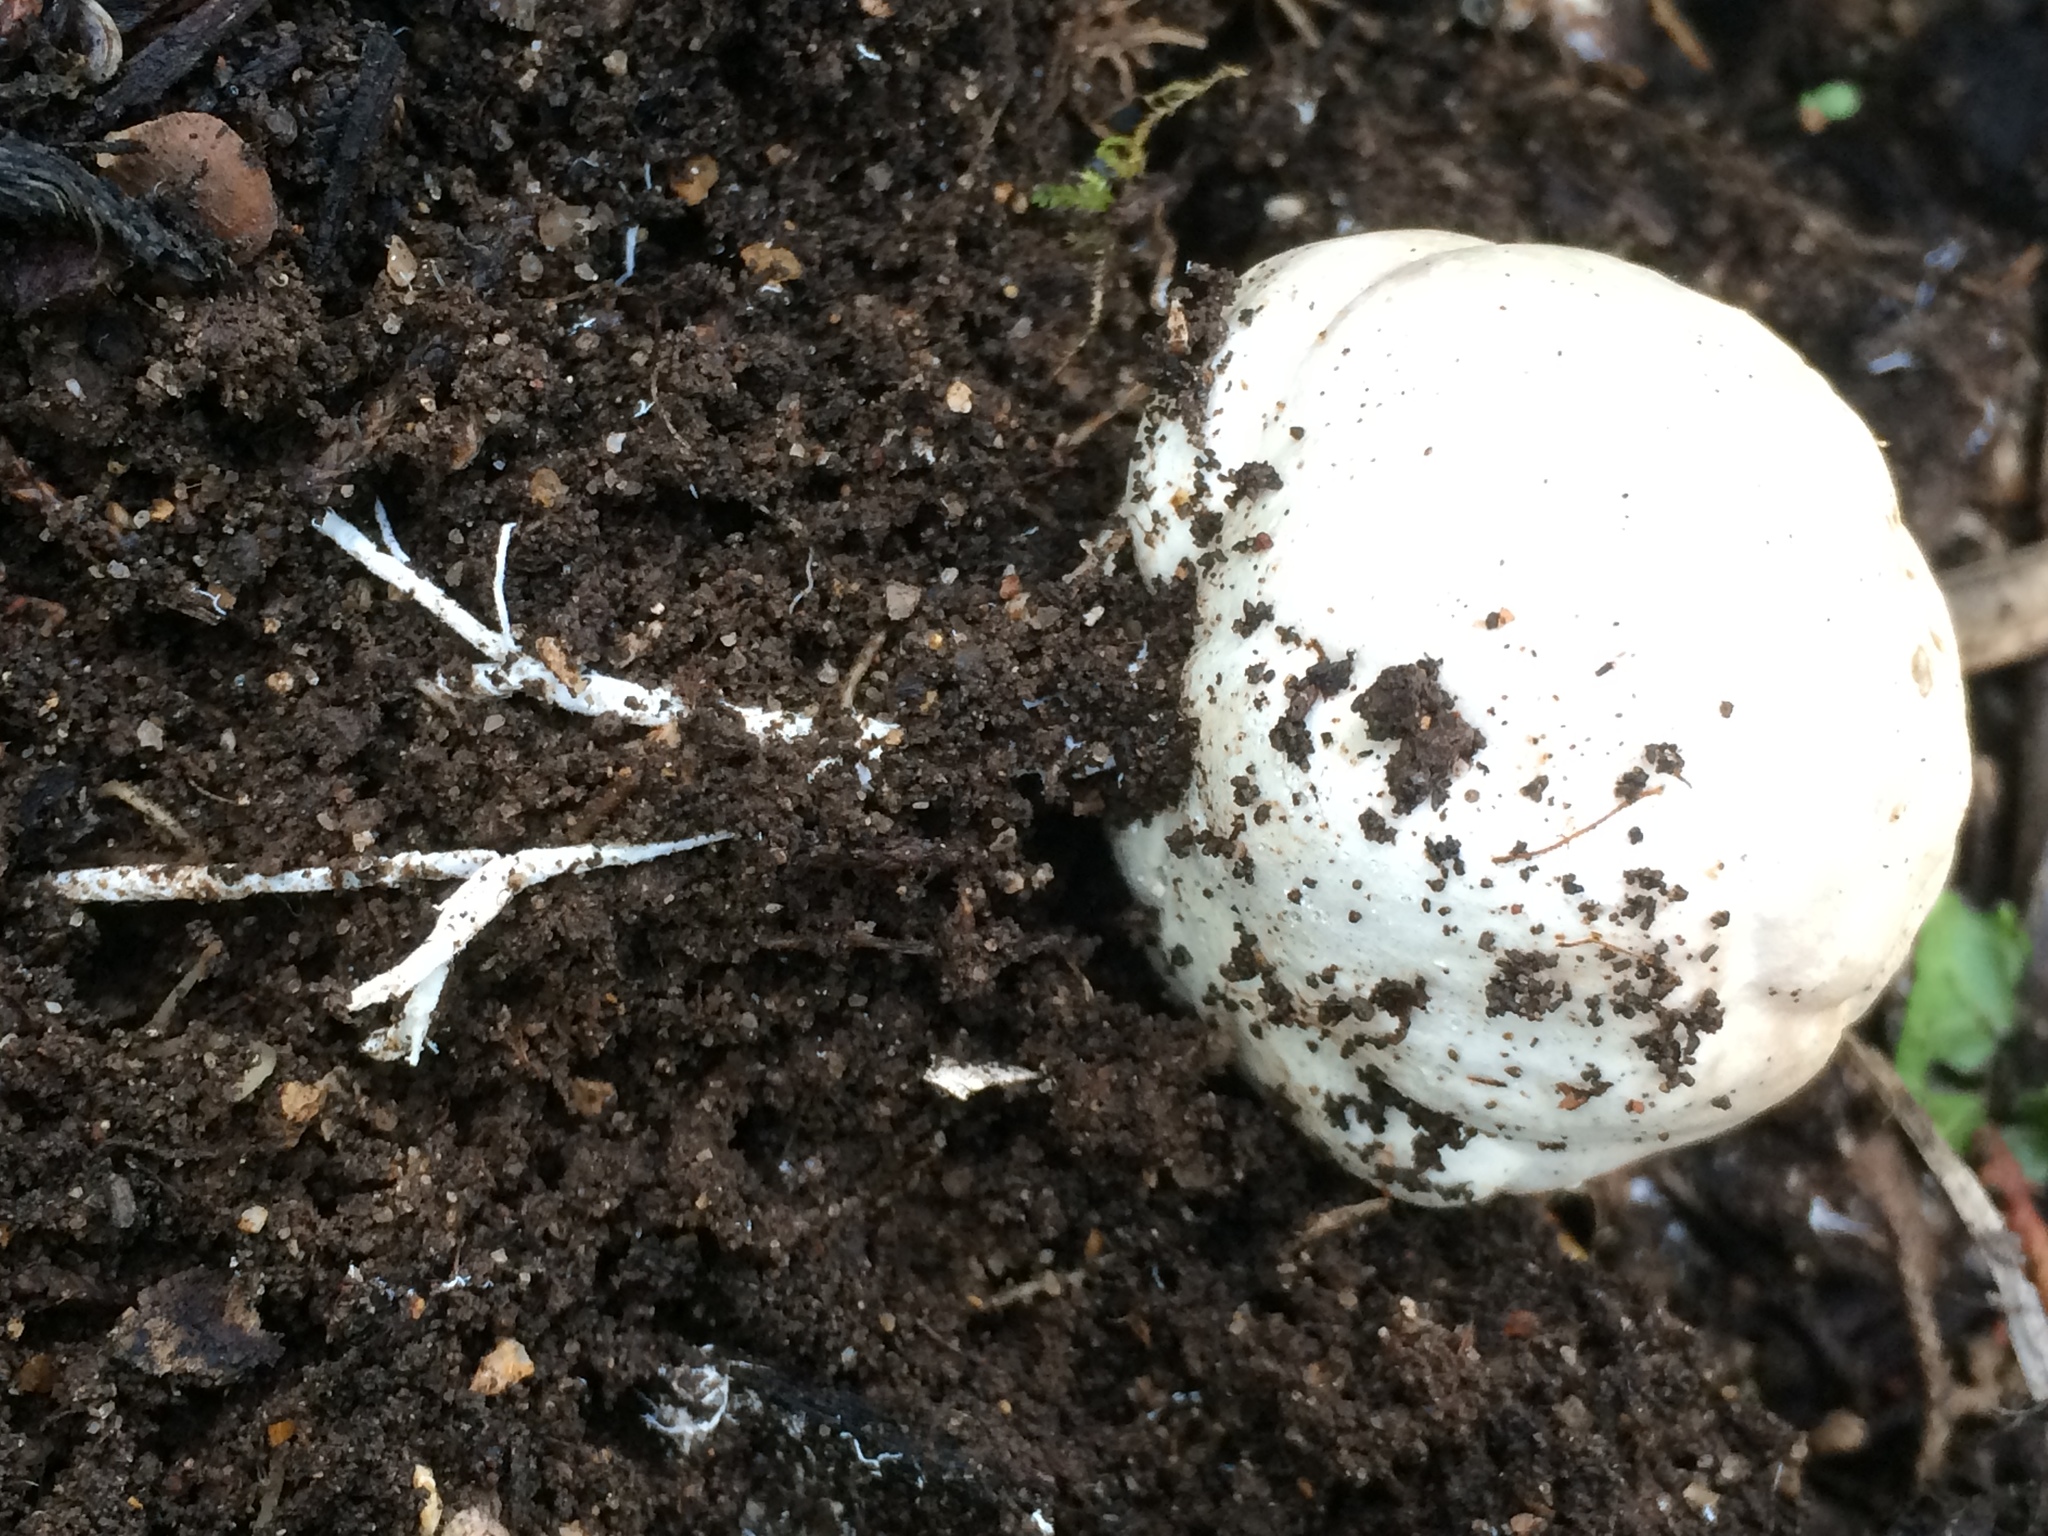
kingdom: Fungi
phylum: Basidiomycota
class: Agaricomycetes
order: Phallales
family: Phallaceae
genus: Clathrus
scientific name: Clathrus ruber
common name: Red cage
